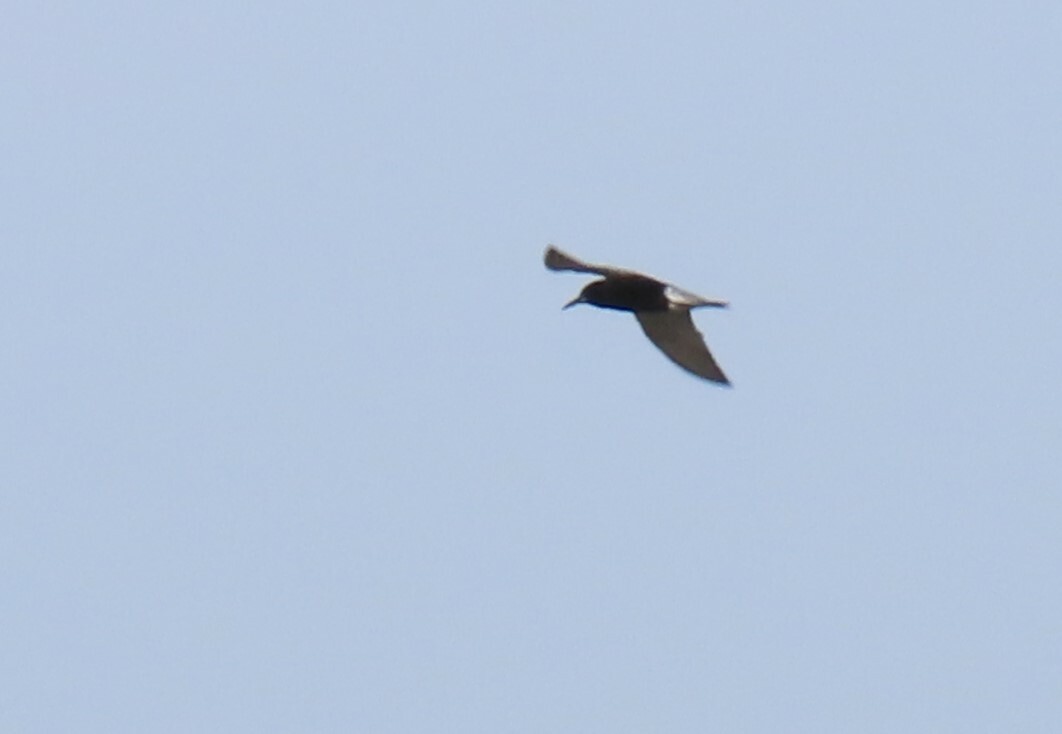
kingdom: Animalia
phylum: Chordata
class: Aves
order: Charadriiformes
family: Laridae
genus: Chlidonias
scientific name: Chlidonias niger
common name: Black tern
